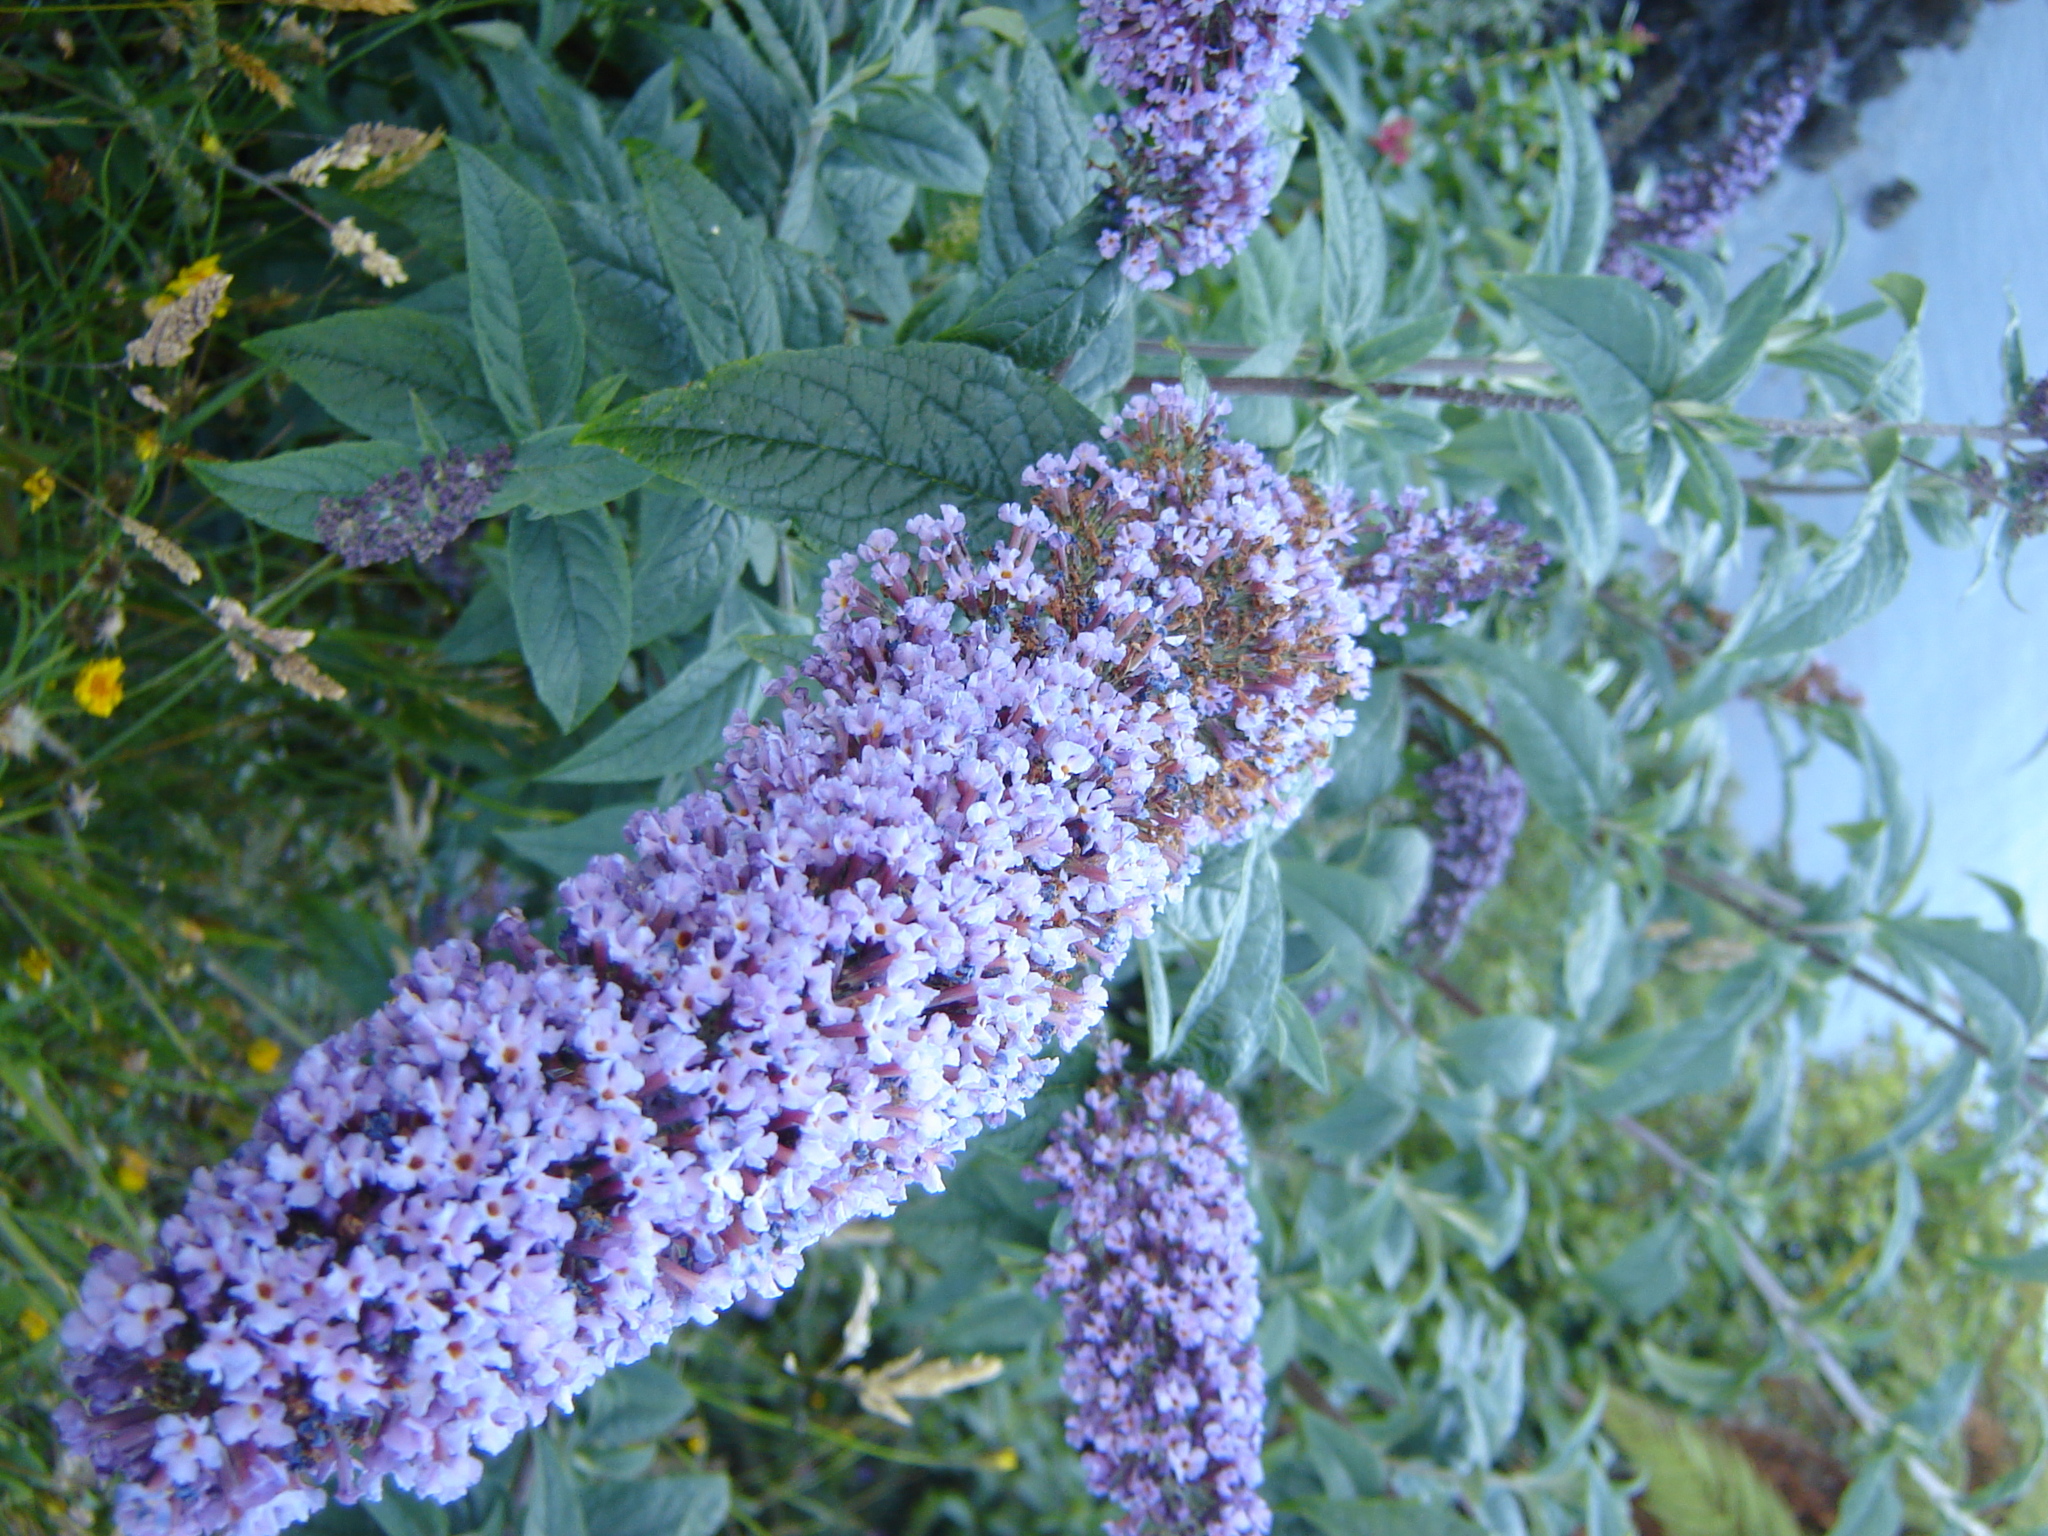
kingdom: Plantae
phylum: Tracheophyta
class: Magnoliopsida
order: Lamiales
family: Scrophulariaceae
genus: Buddleja
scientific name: Buddleja davidii
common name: Butterfly-bush
